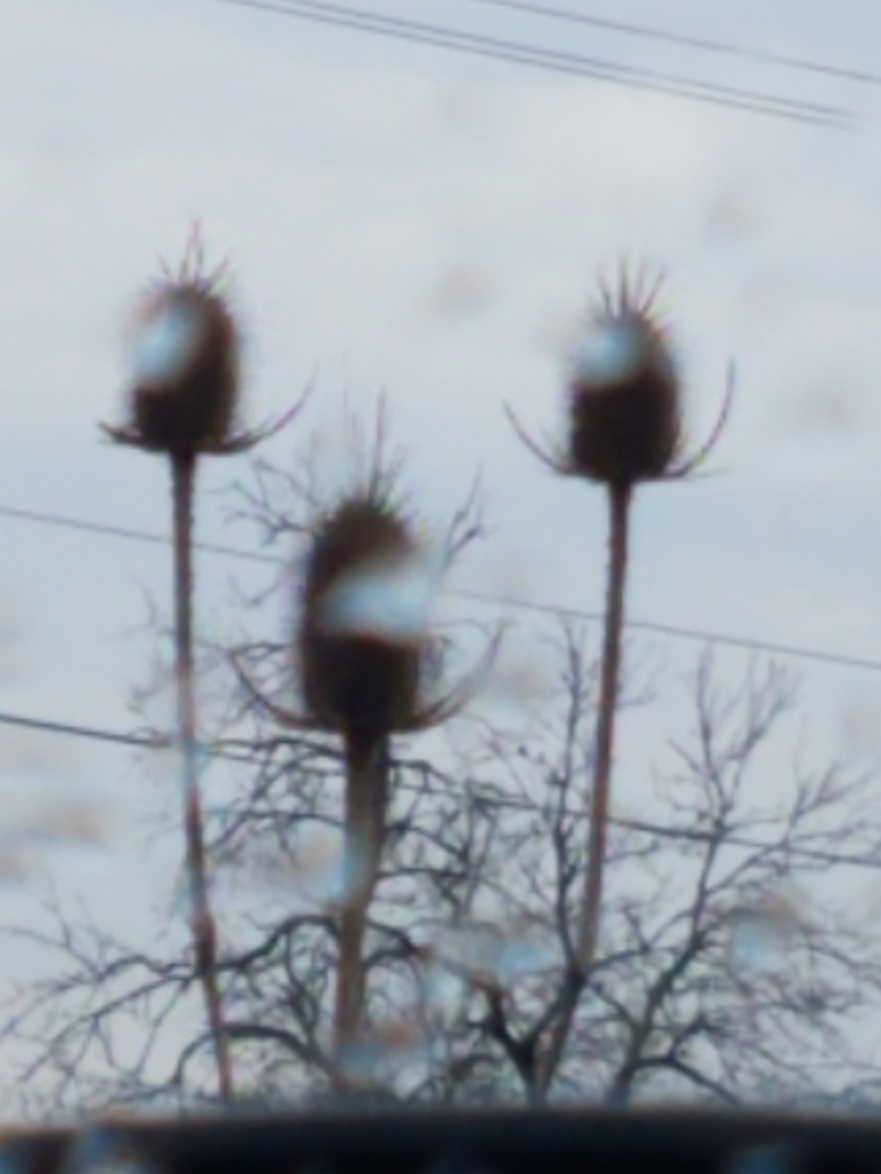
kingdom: Plantae
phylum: Tracheophyta
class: Magnoliopsida
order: Dipsacales
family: Caprifoliaceae
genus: Dipsacus
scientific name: Dipsacus laciniatus
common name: Cut-leaved teasel
